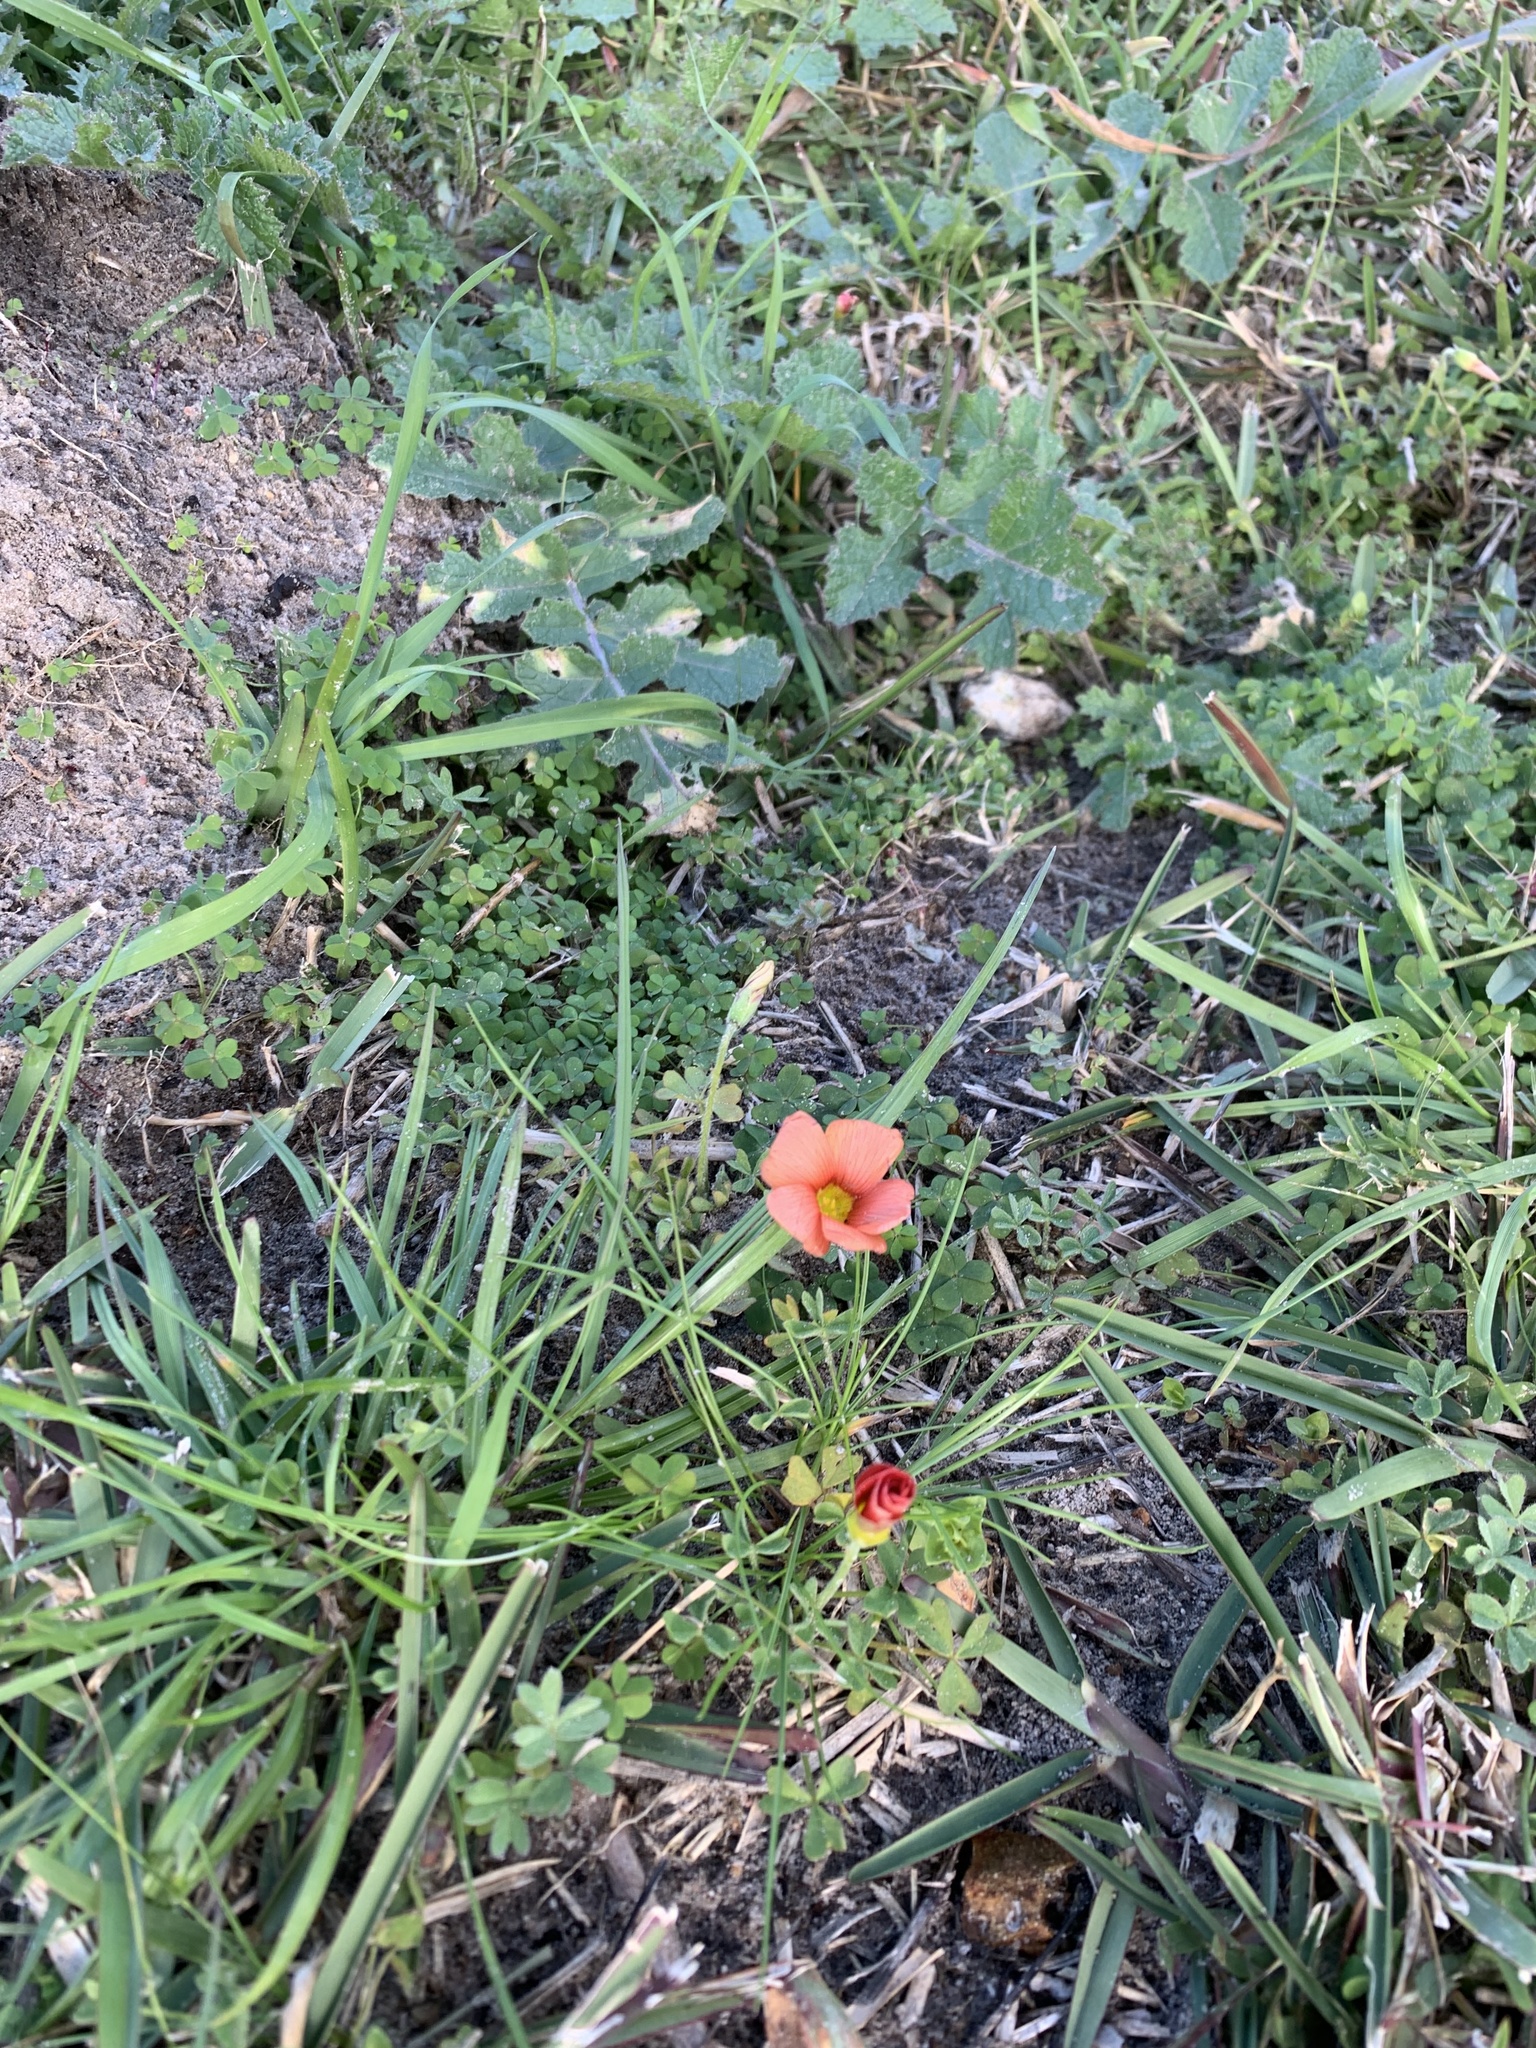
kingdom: Plantae
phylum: Tracheophyta
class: Magnoliopsida
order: Oxalidales
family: Oxalidaceae
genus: Oxalis
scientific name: Oxalis obtusa
